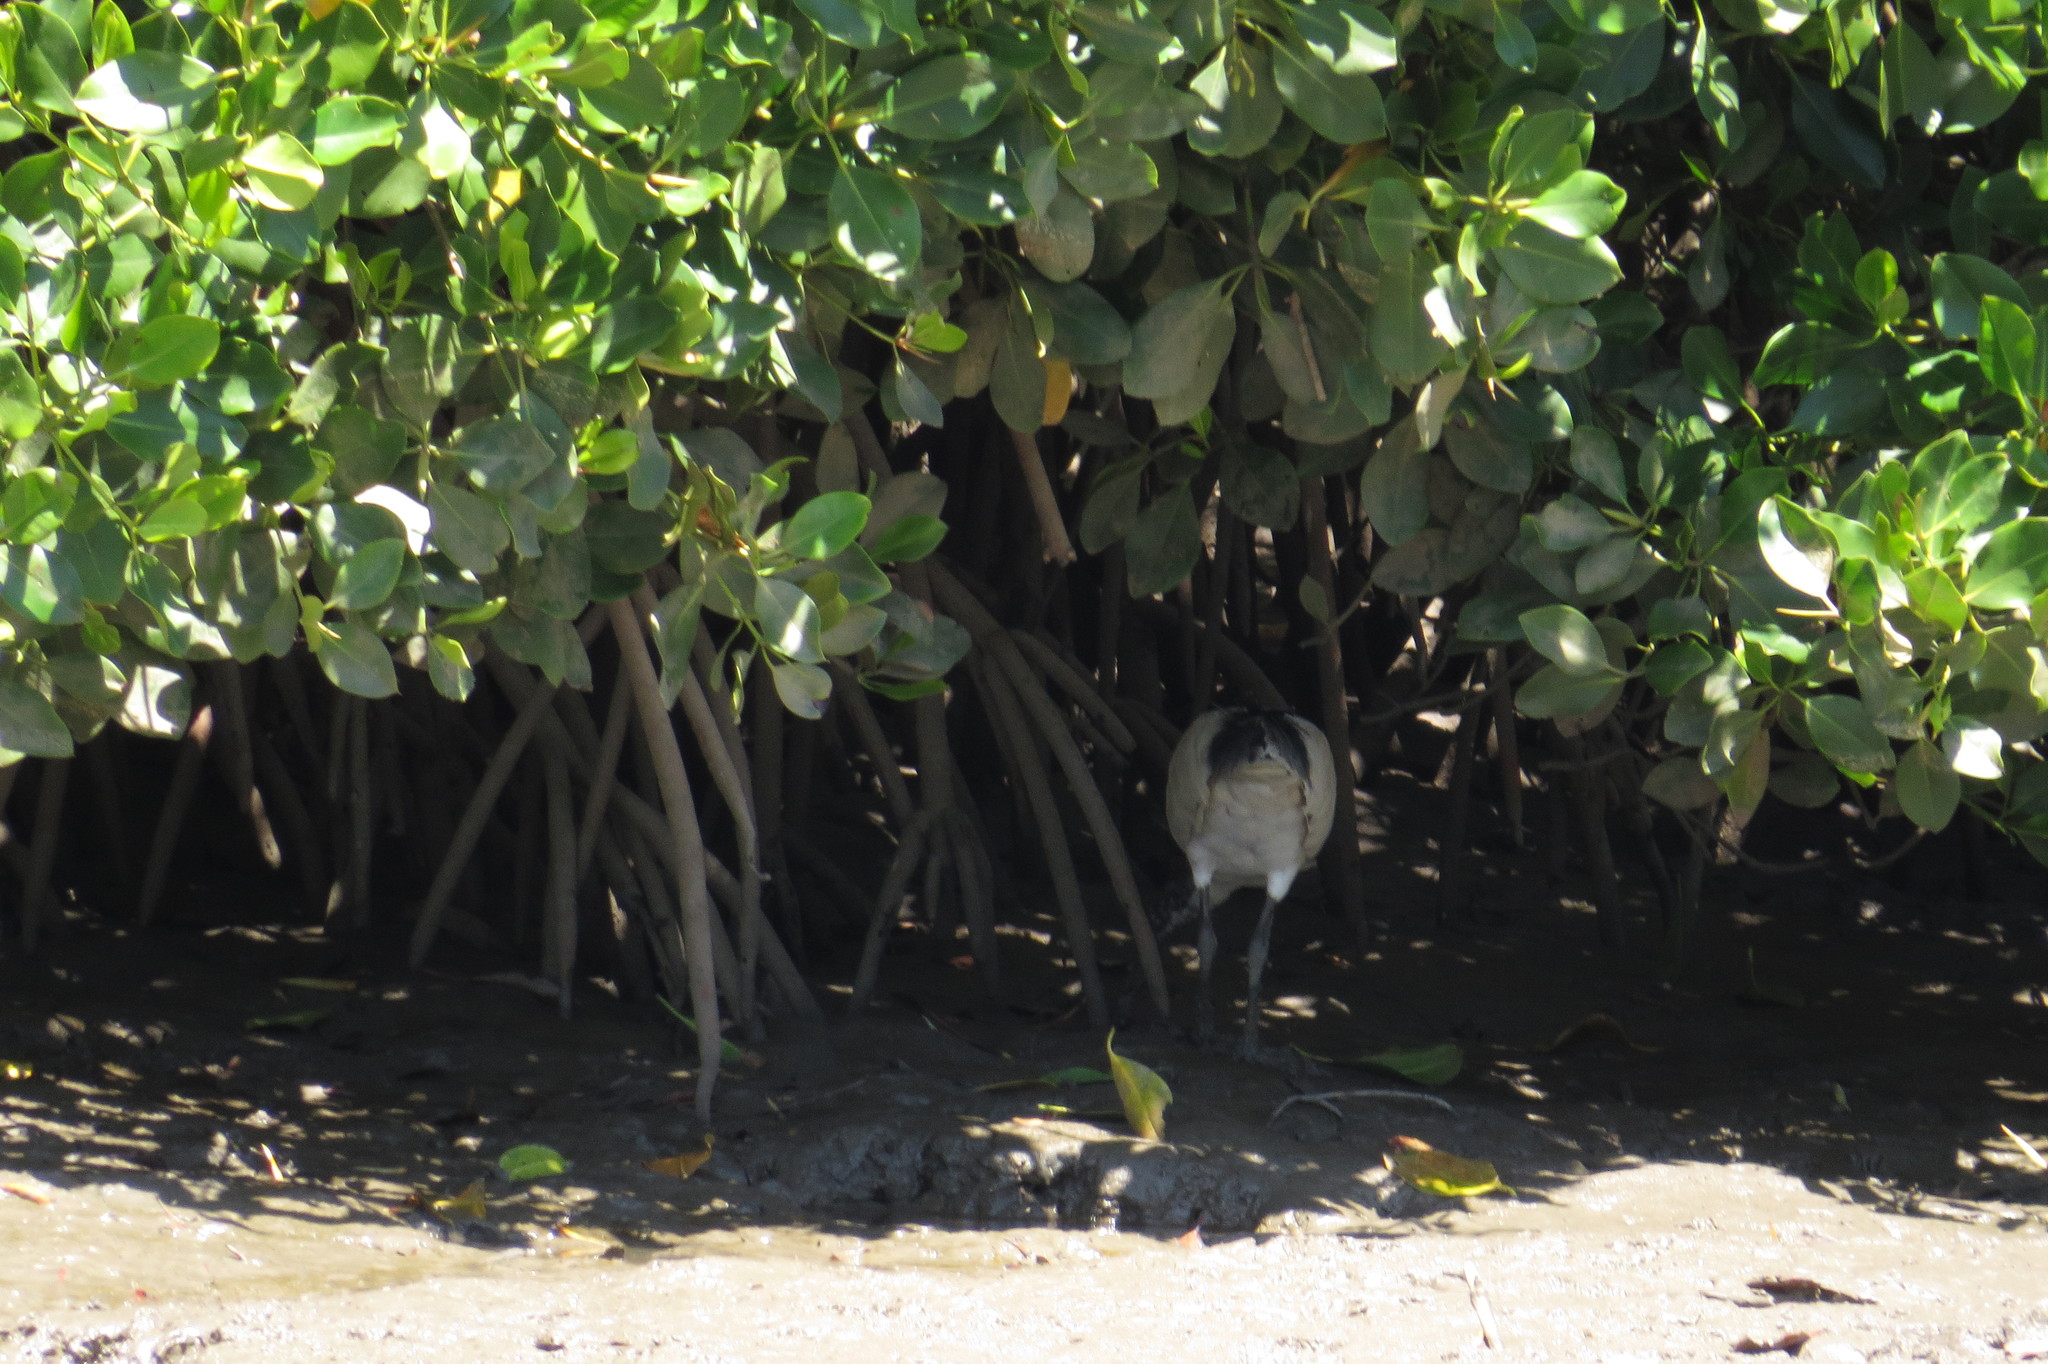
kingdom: Animalia
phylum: Chordata
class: Aves
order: Pelecaniformes
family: Threskiornithidae
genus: Threskiornis
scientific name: Threskiornis molucca
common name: Australian white ibis
